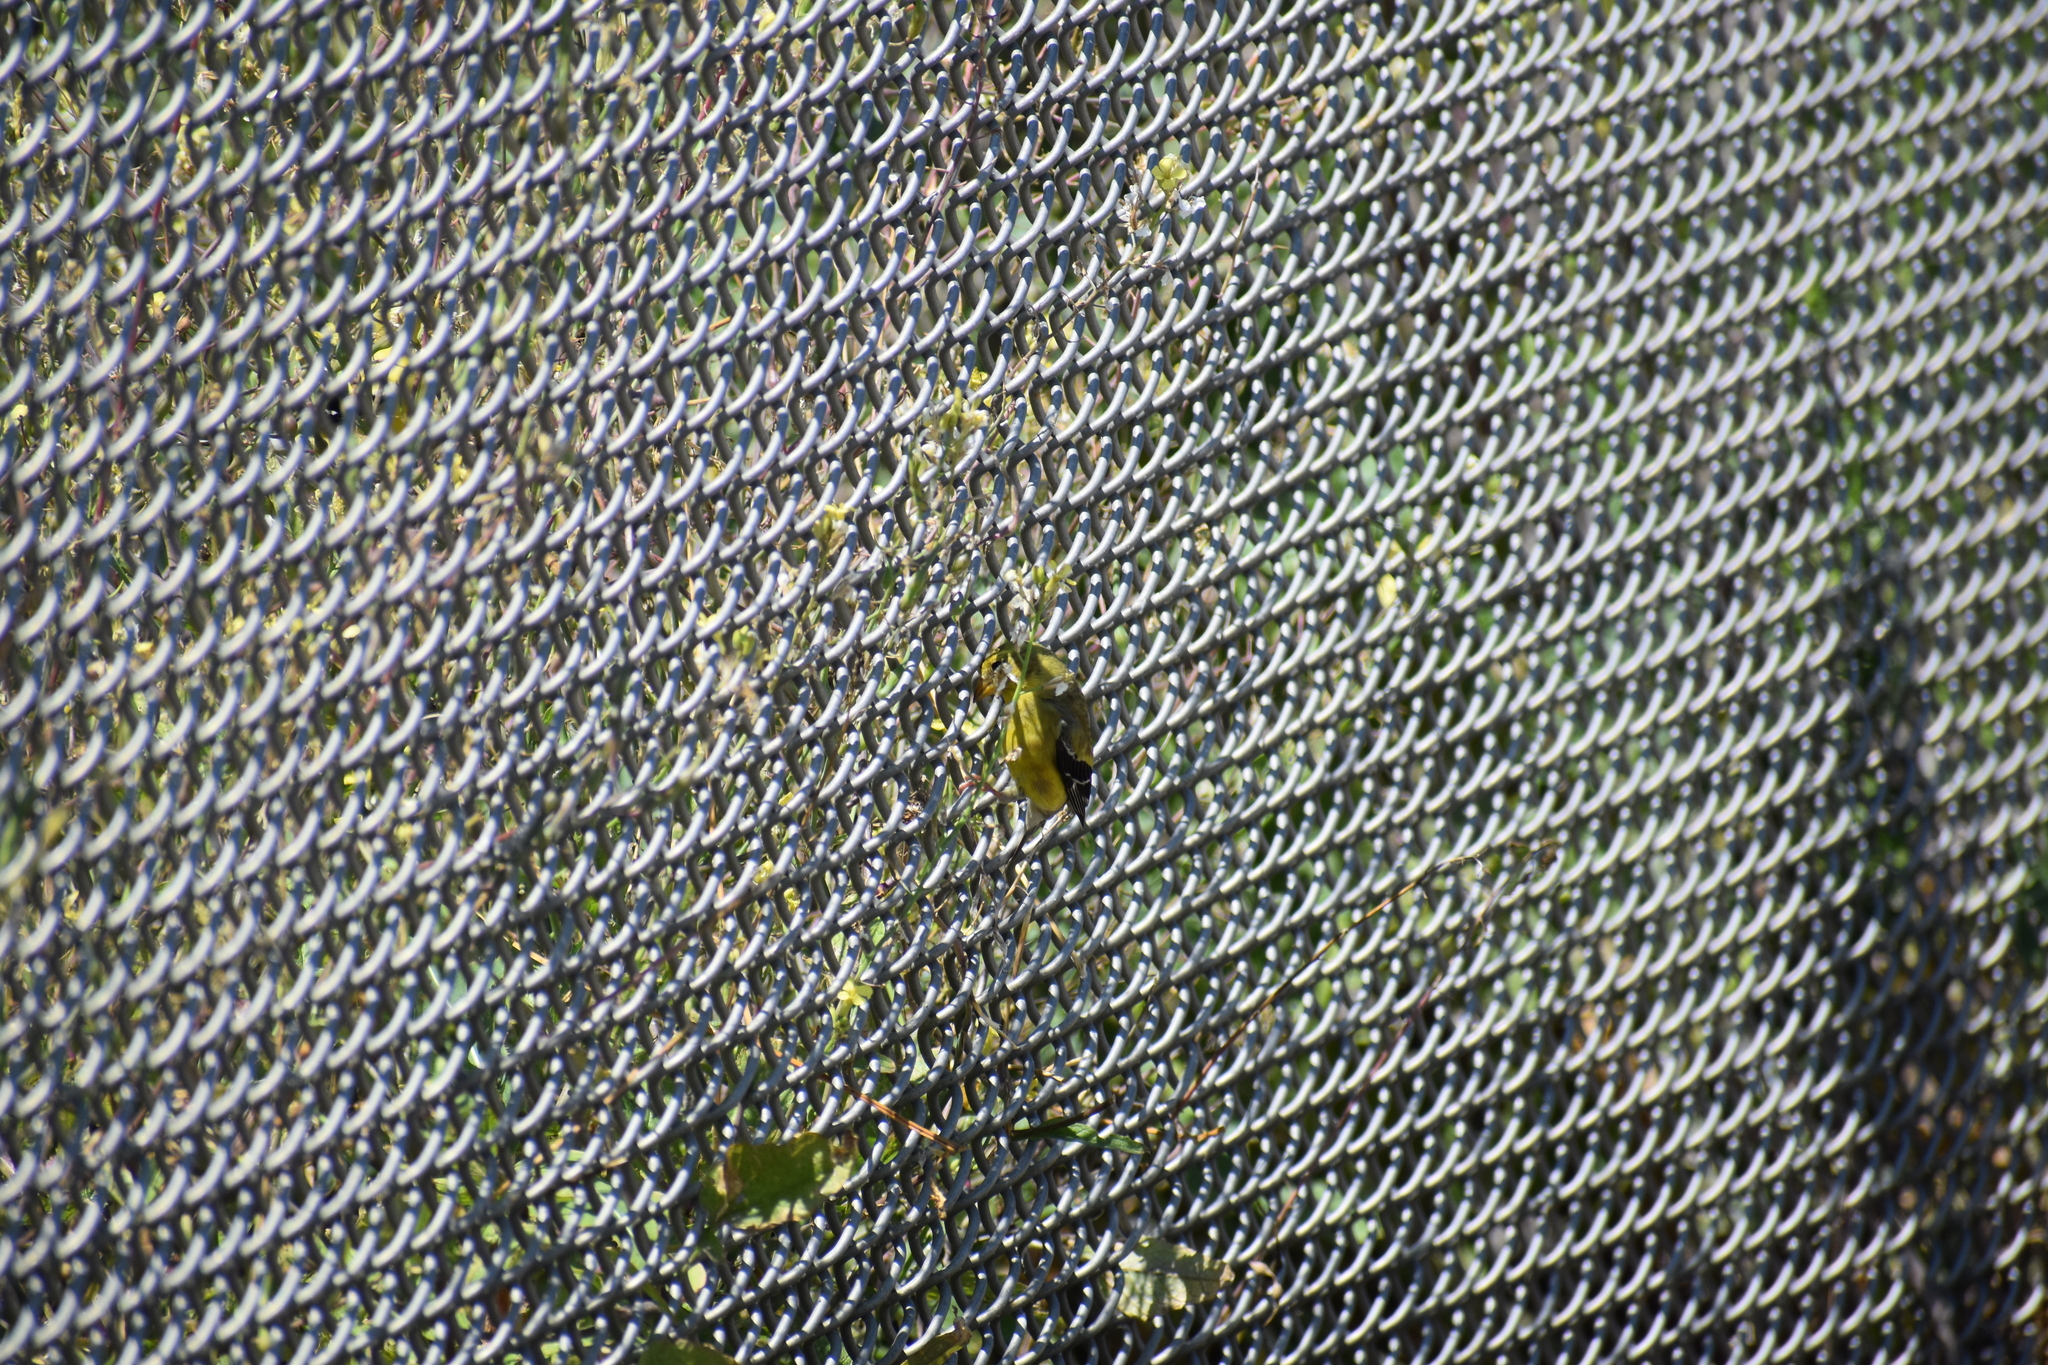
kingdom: Animalia
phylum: Chordata
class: Aves
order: Passeriformes
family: Fringillidae
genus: Spinus
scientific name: Spinus tristis
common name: American goldfinch
